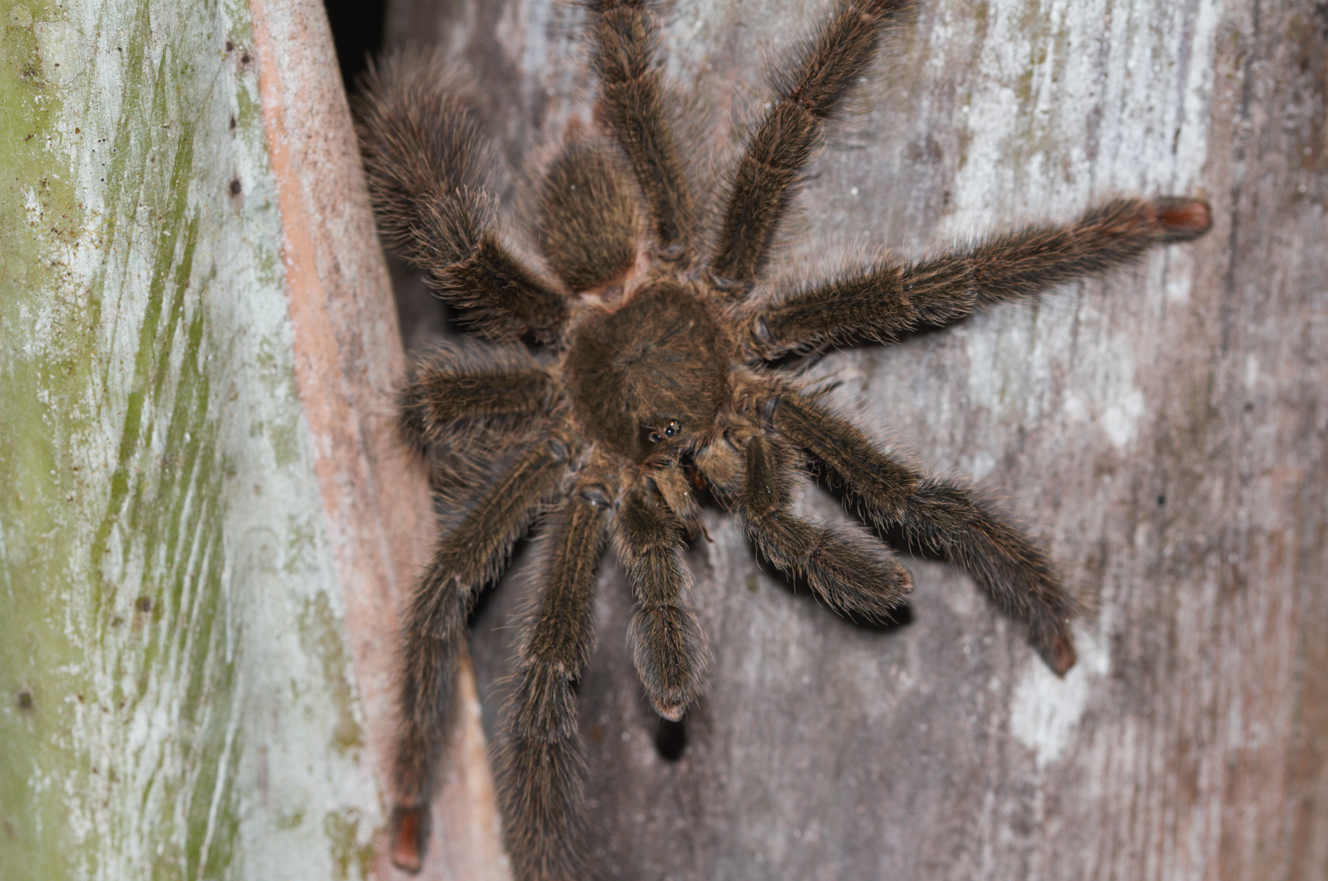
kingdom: Animalia
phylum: Arthropoda
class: Arachnida
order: Araneae
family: Theraphosidae
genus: Amazonius
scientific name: Amazonius germani
